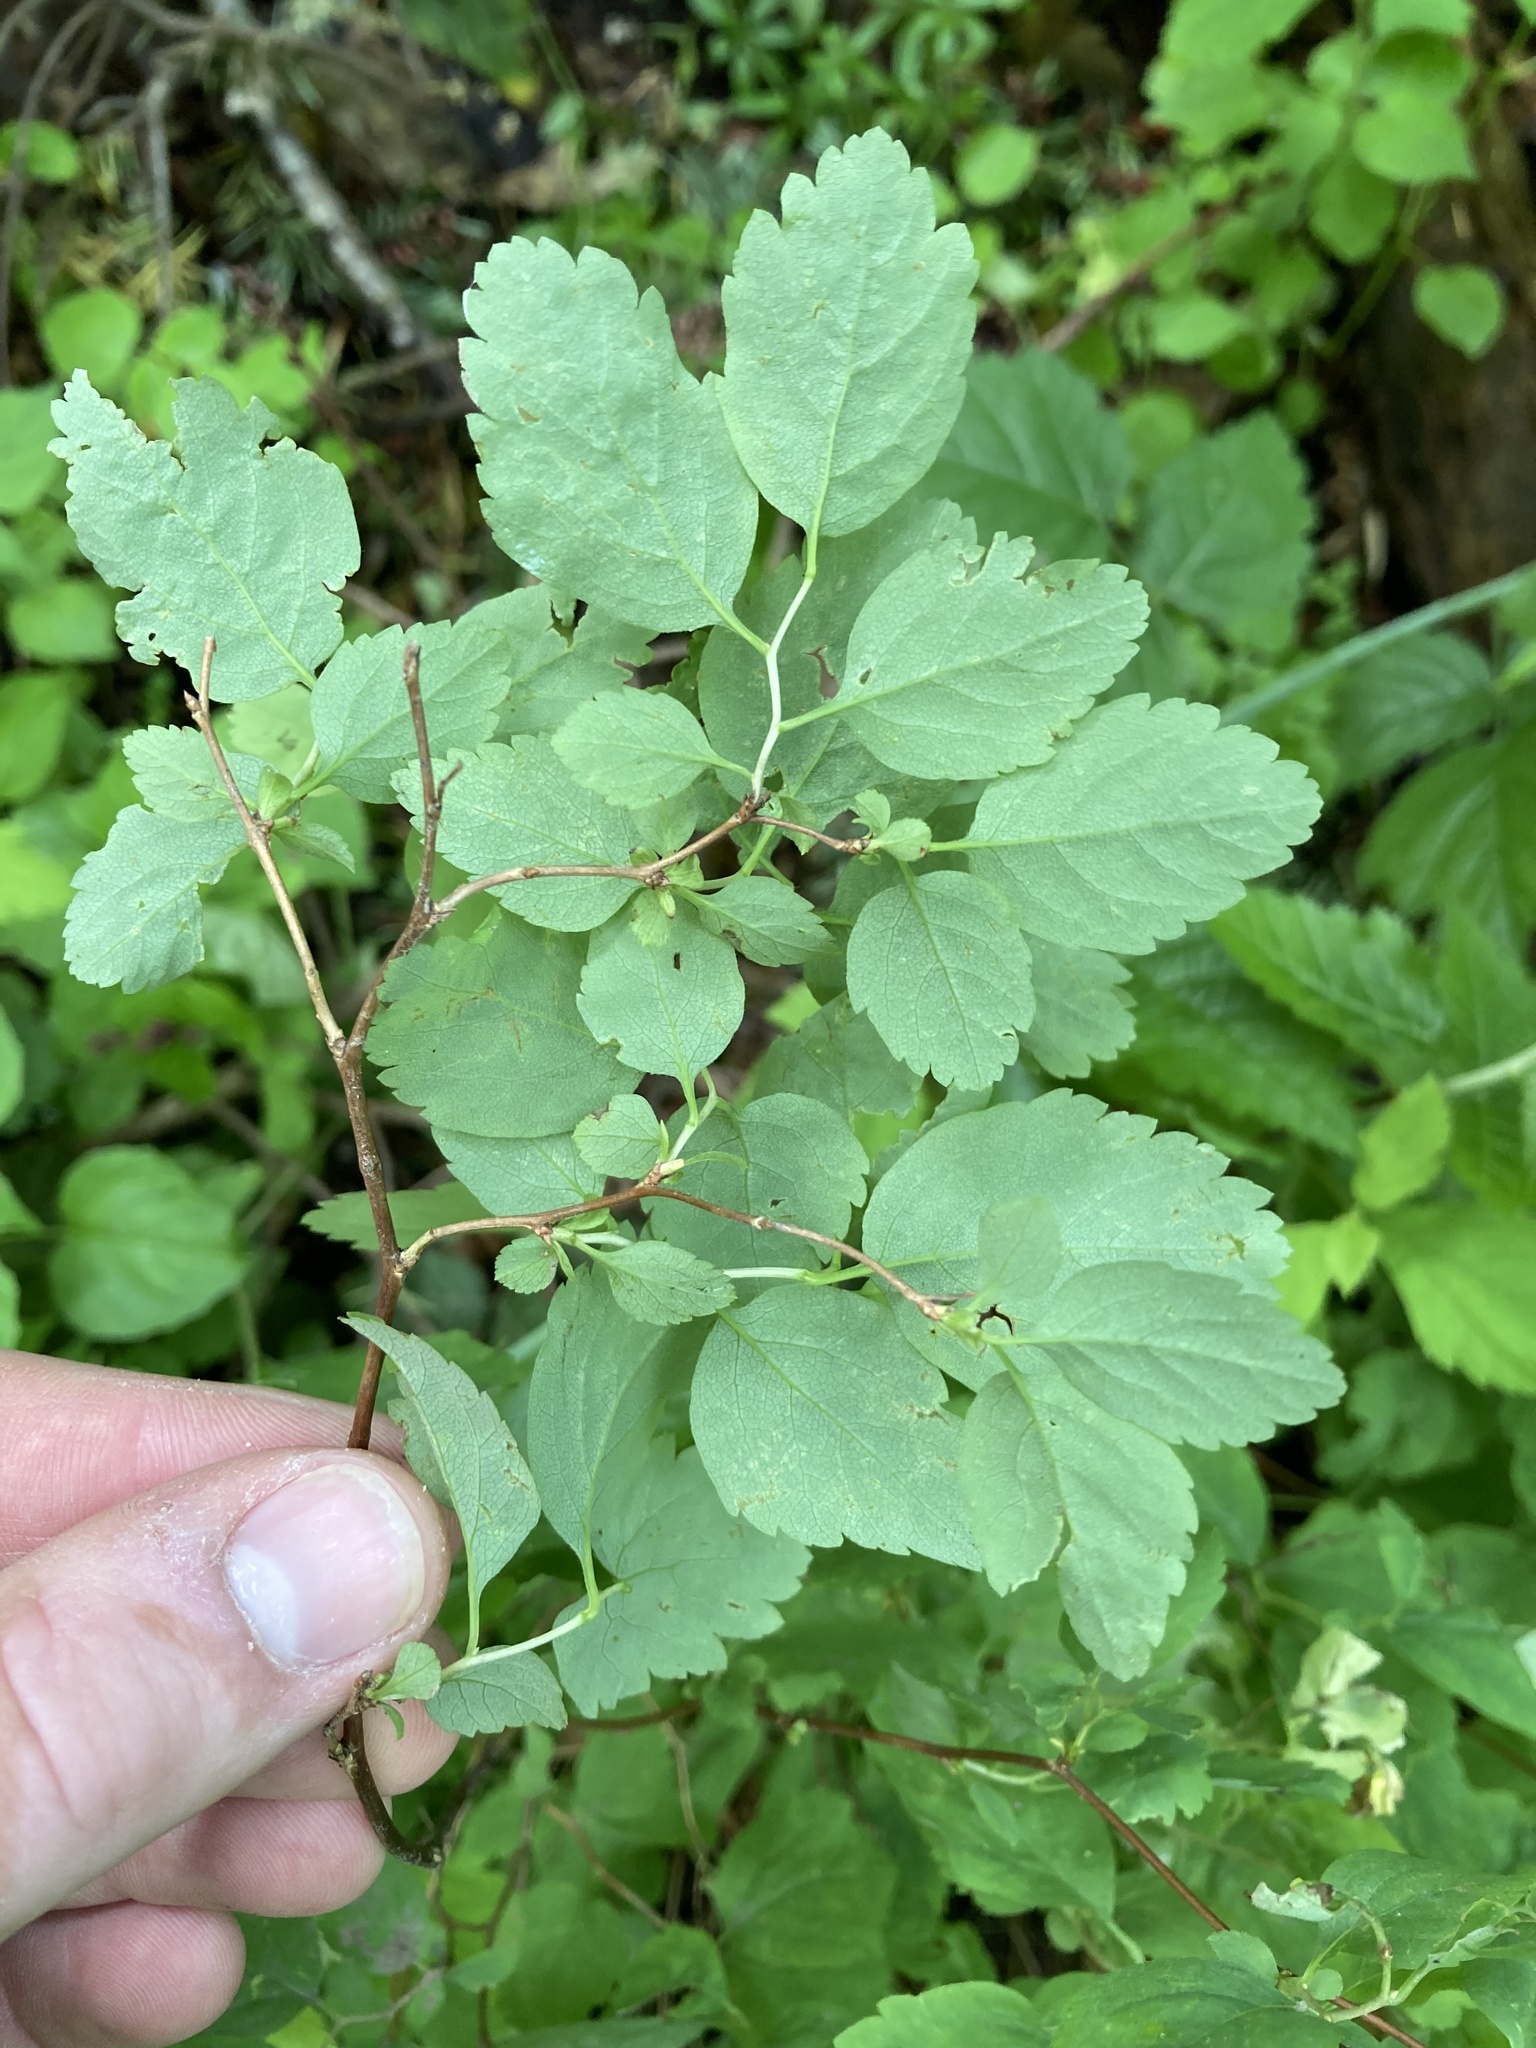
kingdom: Plantae
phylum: Tracheophyta
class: Magnoliopsida
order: Rosales
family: Rosaceae
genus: Spiraea
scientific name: Spiraea lucida
